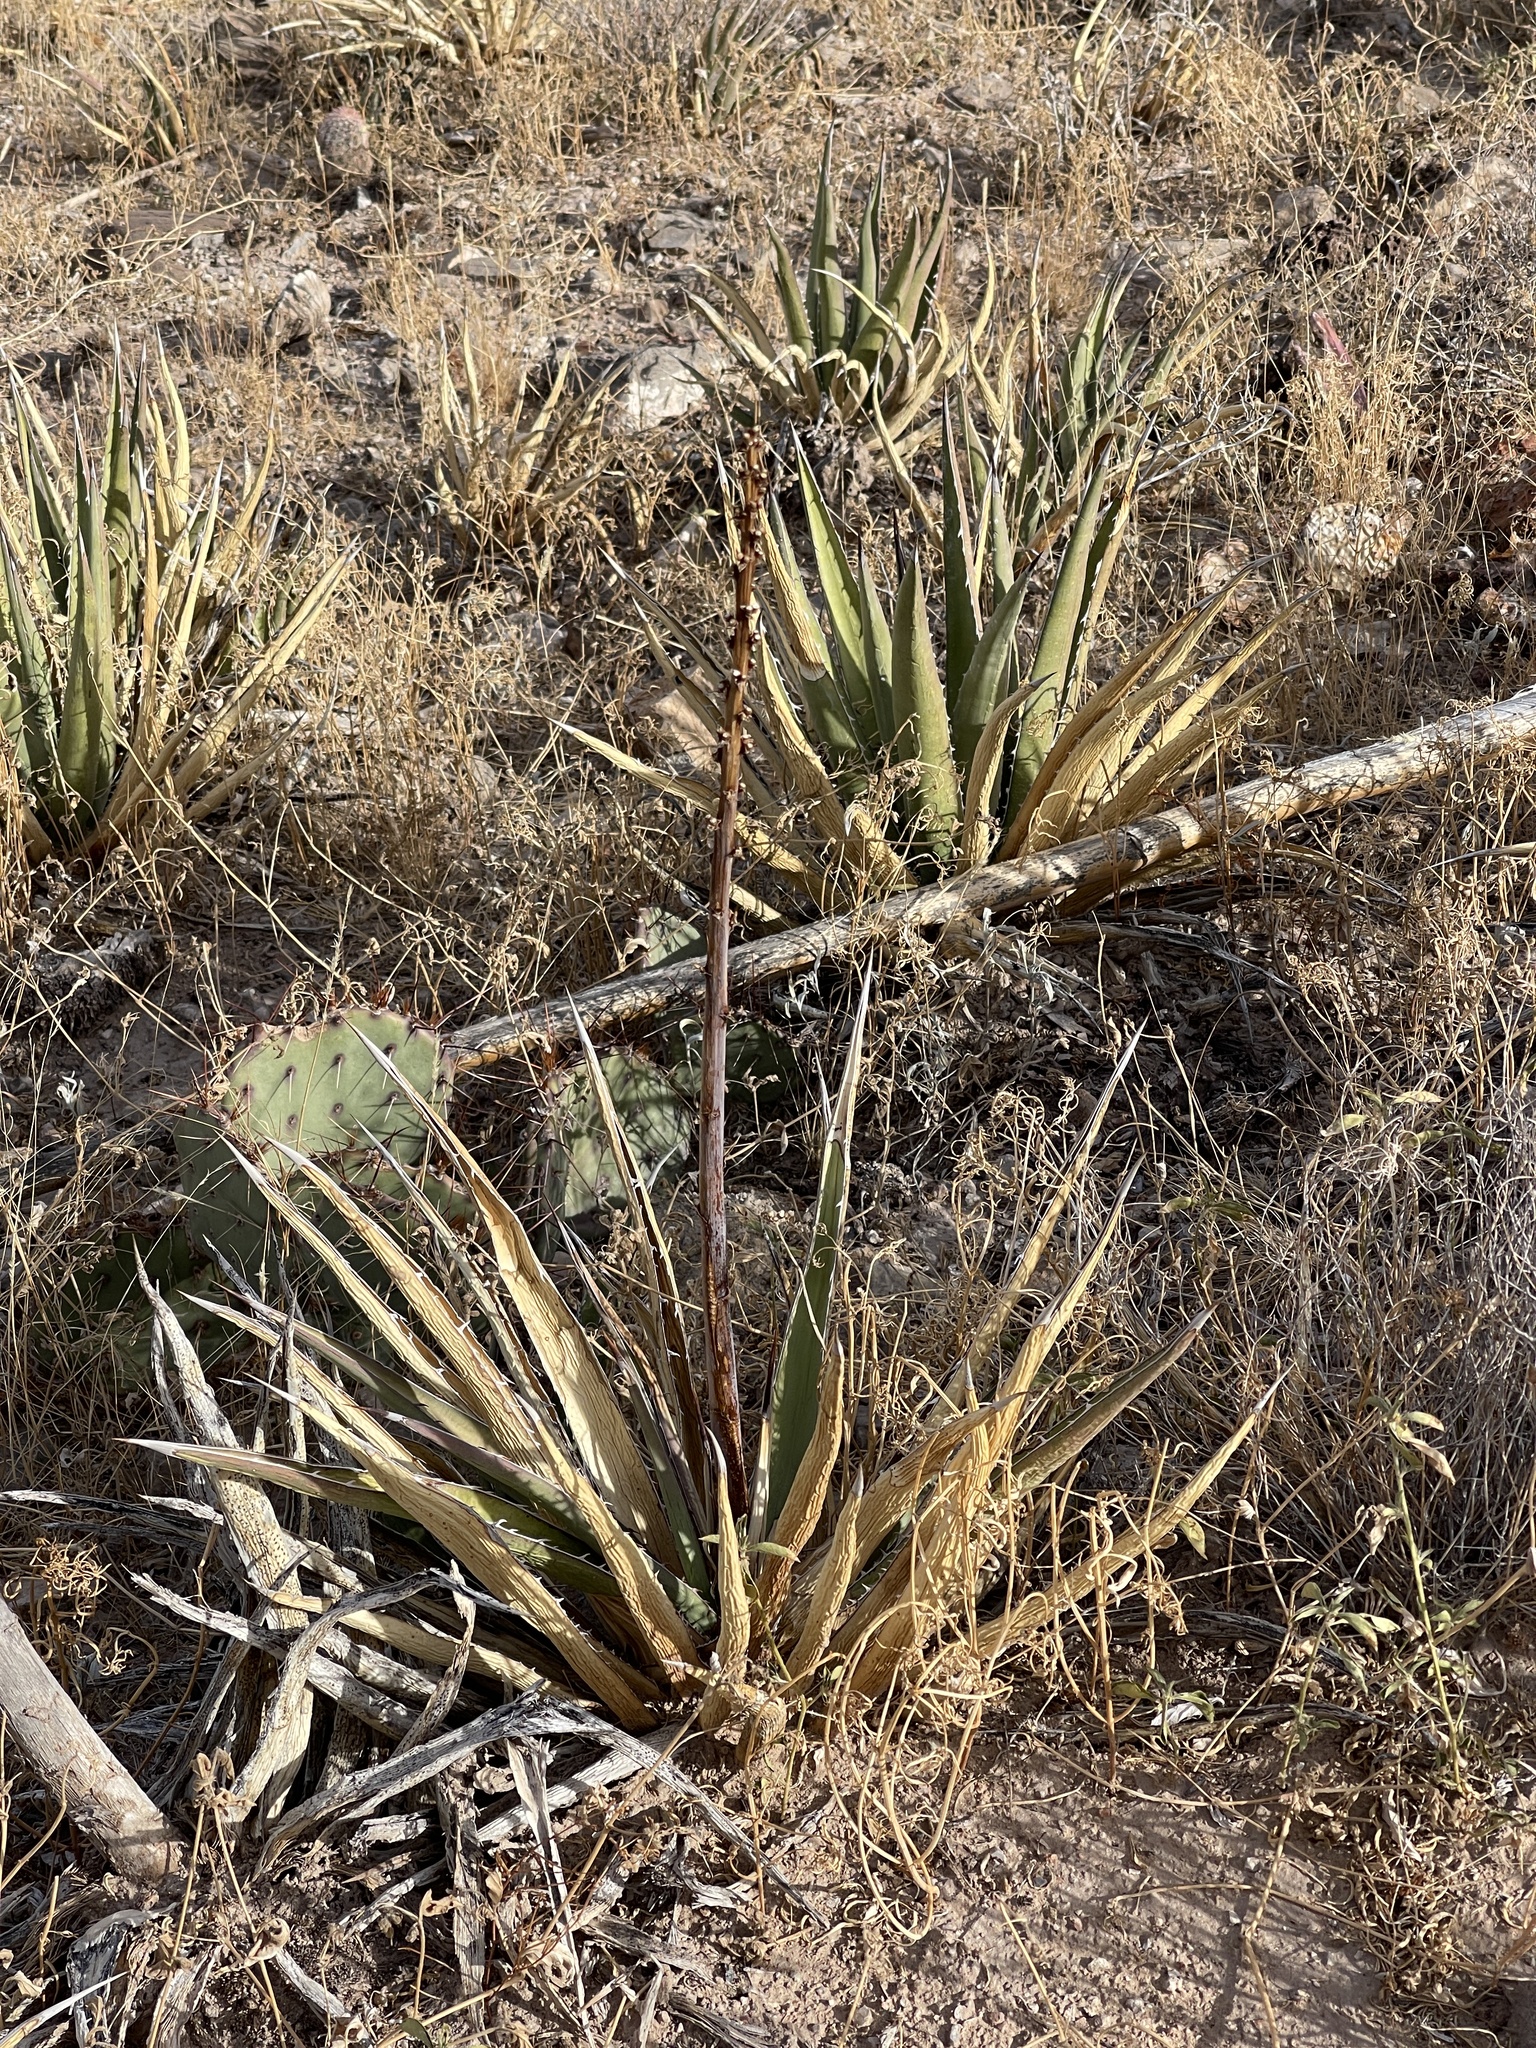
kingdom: Plantae
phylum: Tracheophyta
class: Liliopsida
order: Asparagales
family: Asparagaceae
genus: Agave
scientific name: Agave lechuguilla
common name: Lecheguilla agave
